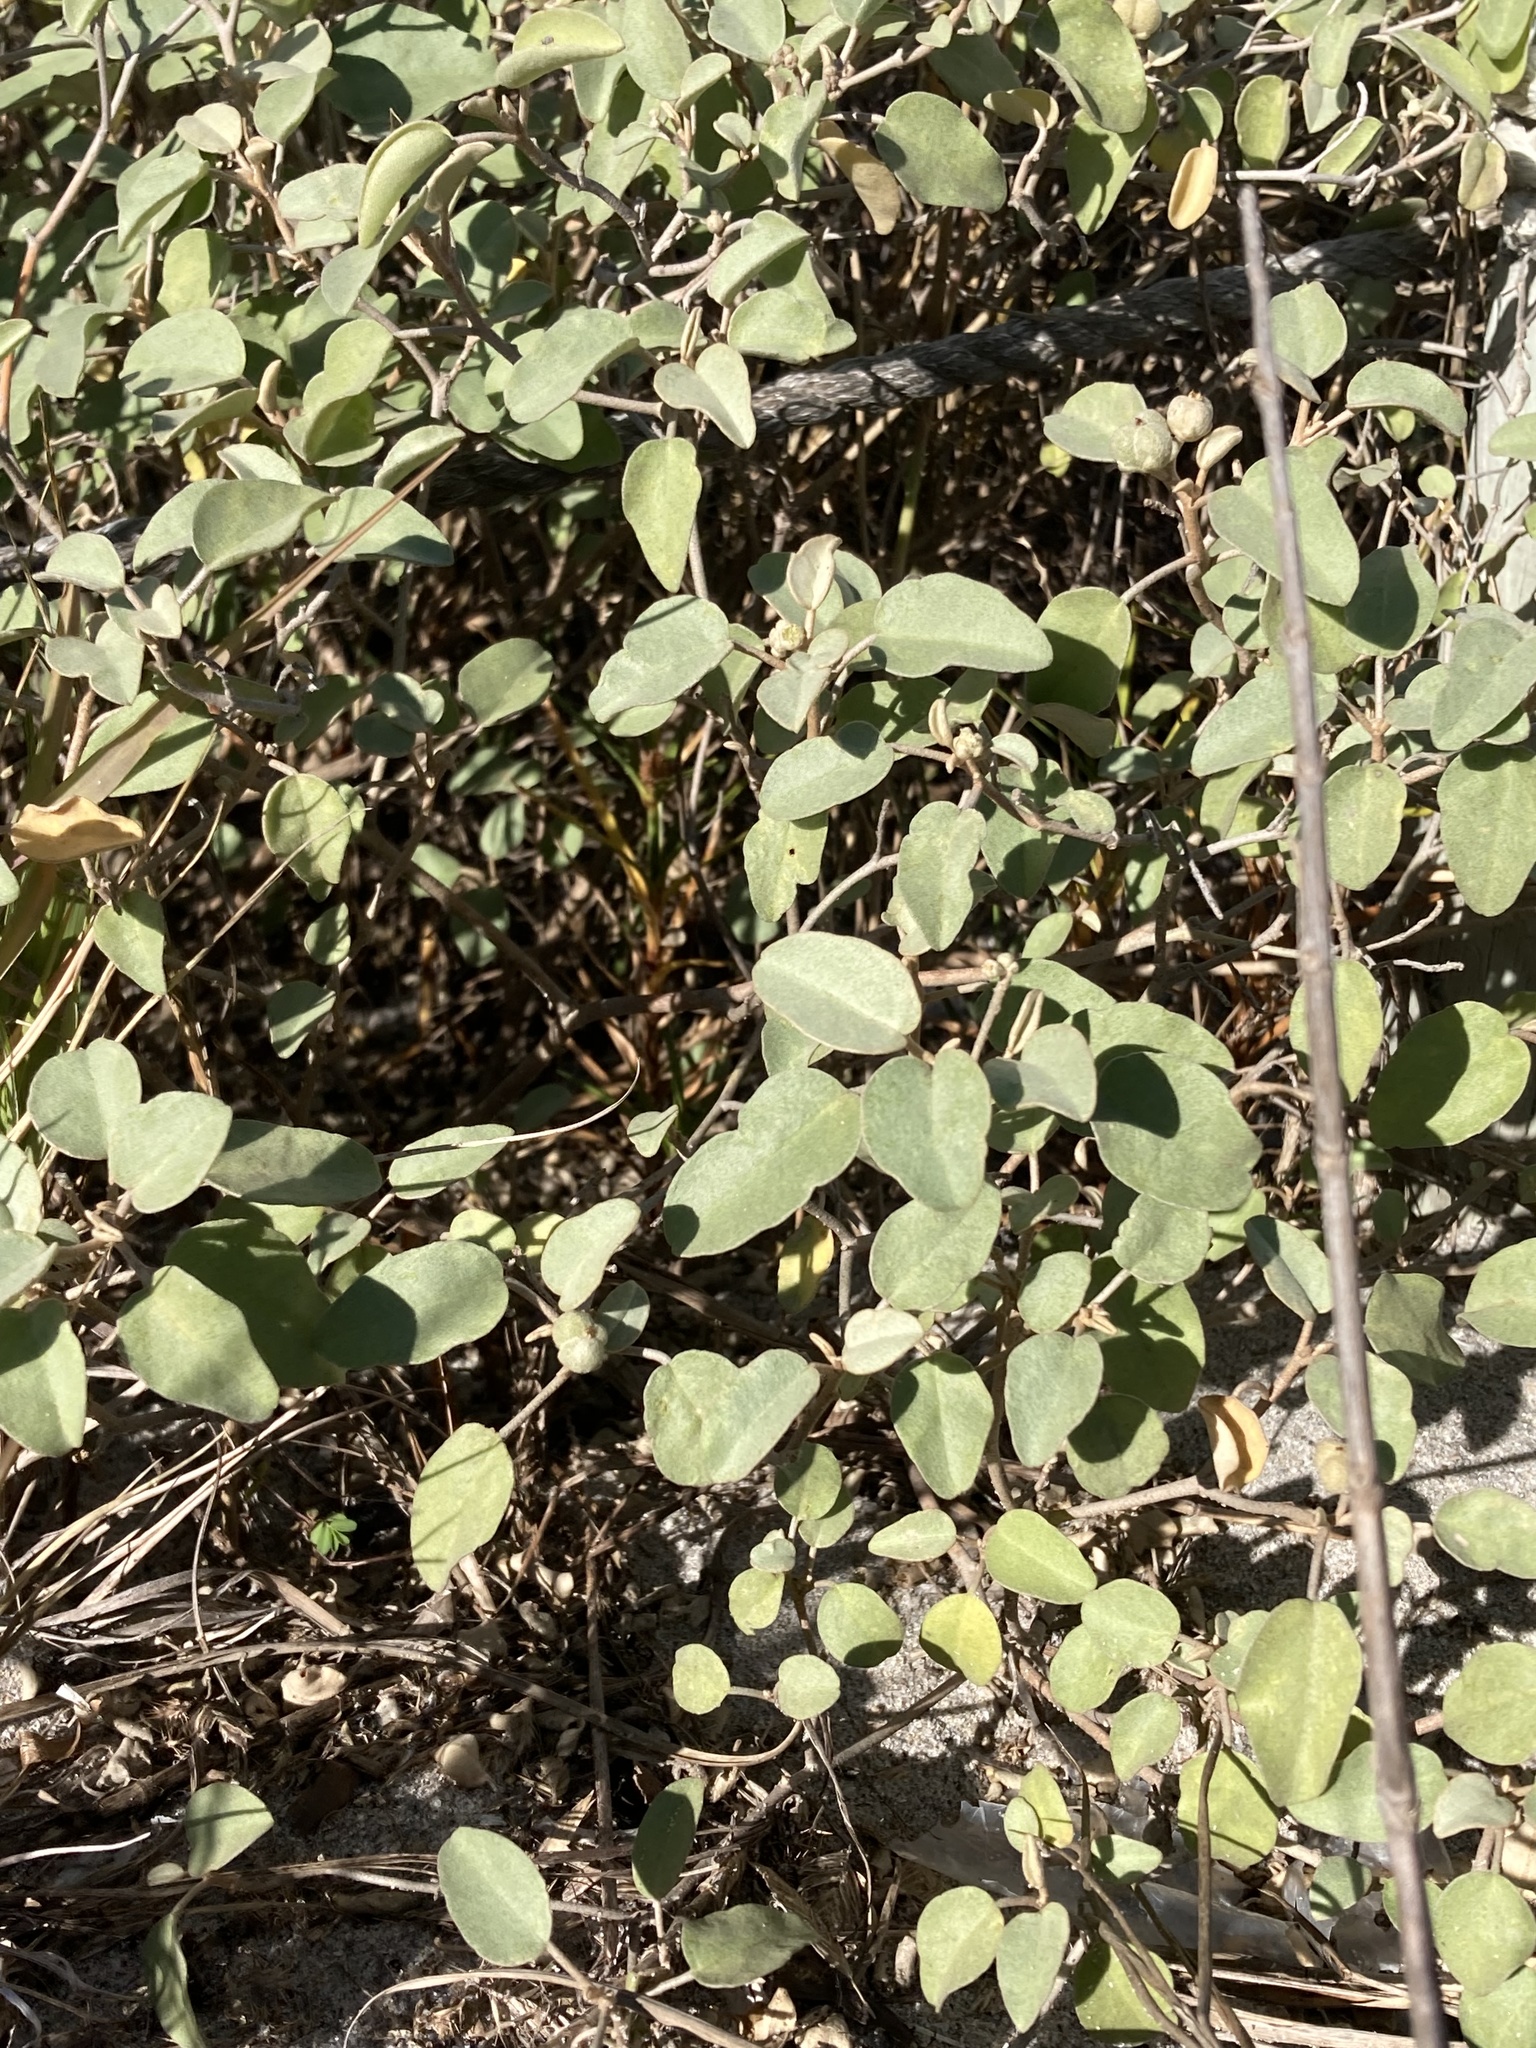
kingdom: Plantae
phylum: Tracheophyta
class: Magnoliopsida
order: Malpighiales
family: Euphorbiaceae
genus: Croton
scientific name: Croton punctatus
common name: Beach-tea
